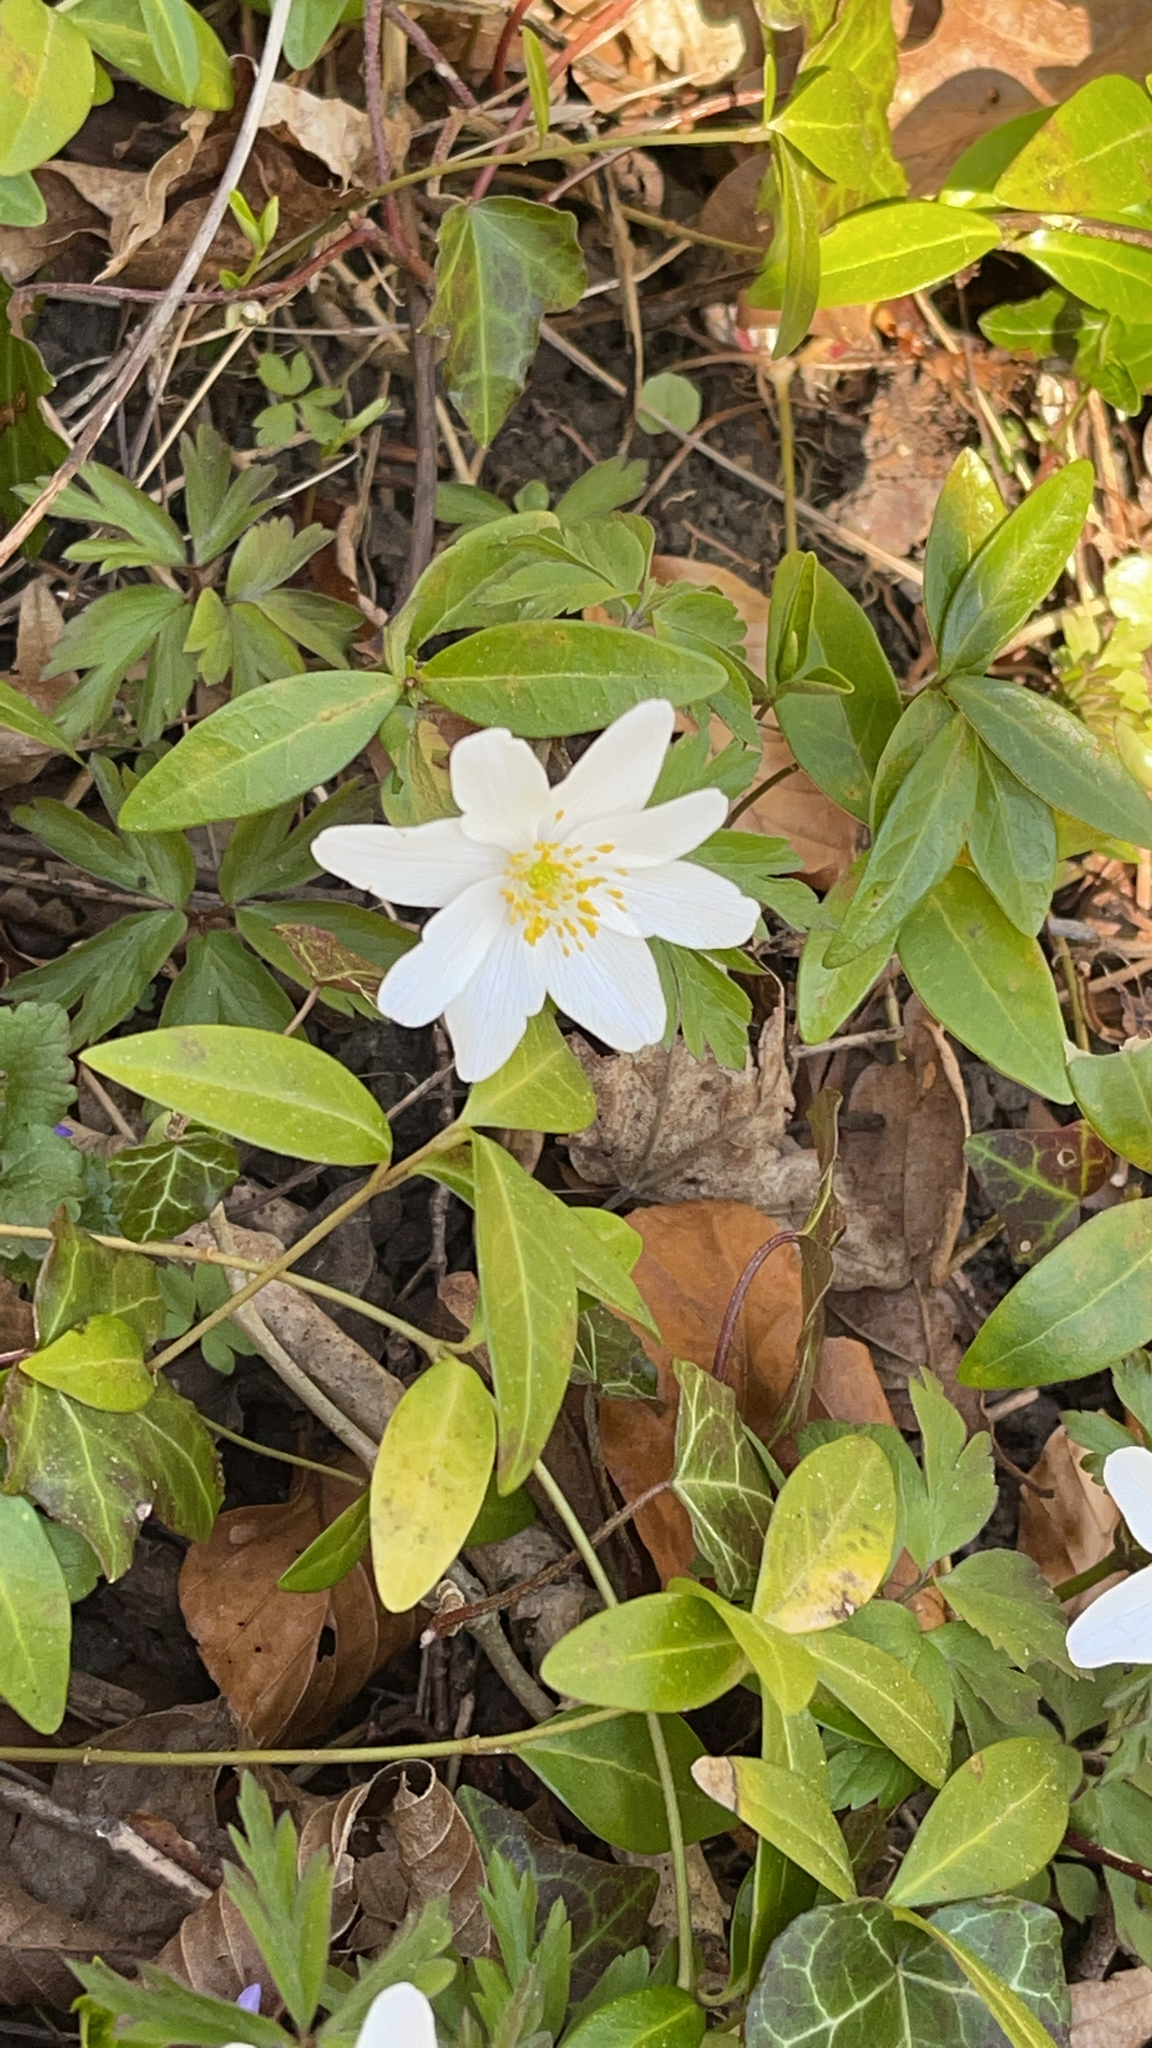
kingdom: Plantae
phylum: Tracheophyta
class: Magnoliopsida
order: Ranunculales
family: Ranunculaceae
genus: Anemone
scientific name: Anemone nemorosa
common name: Wood anemone
